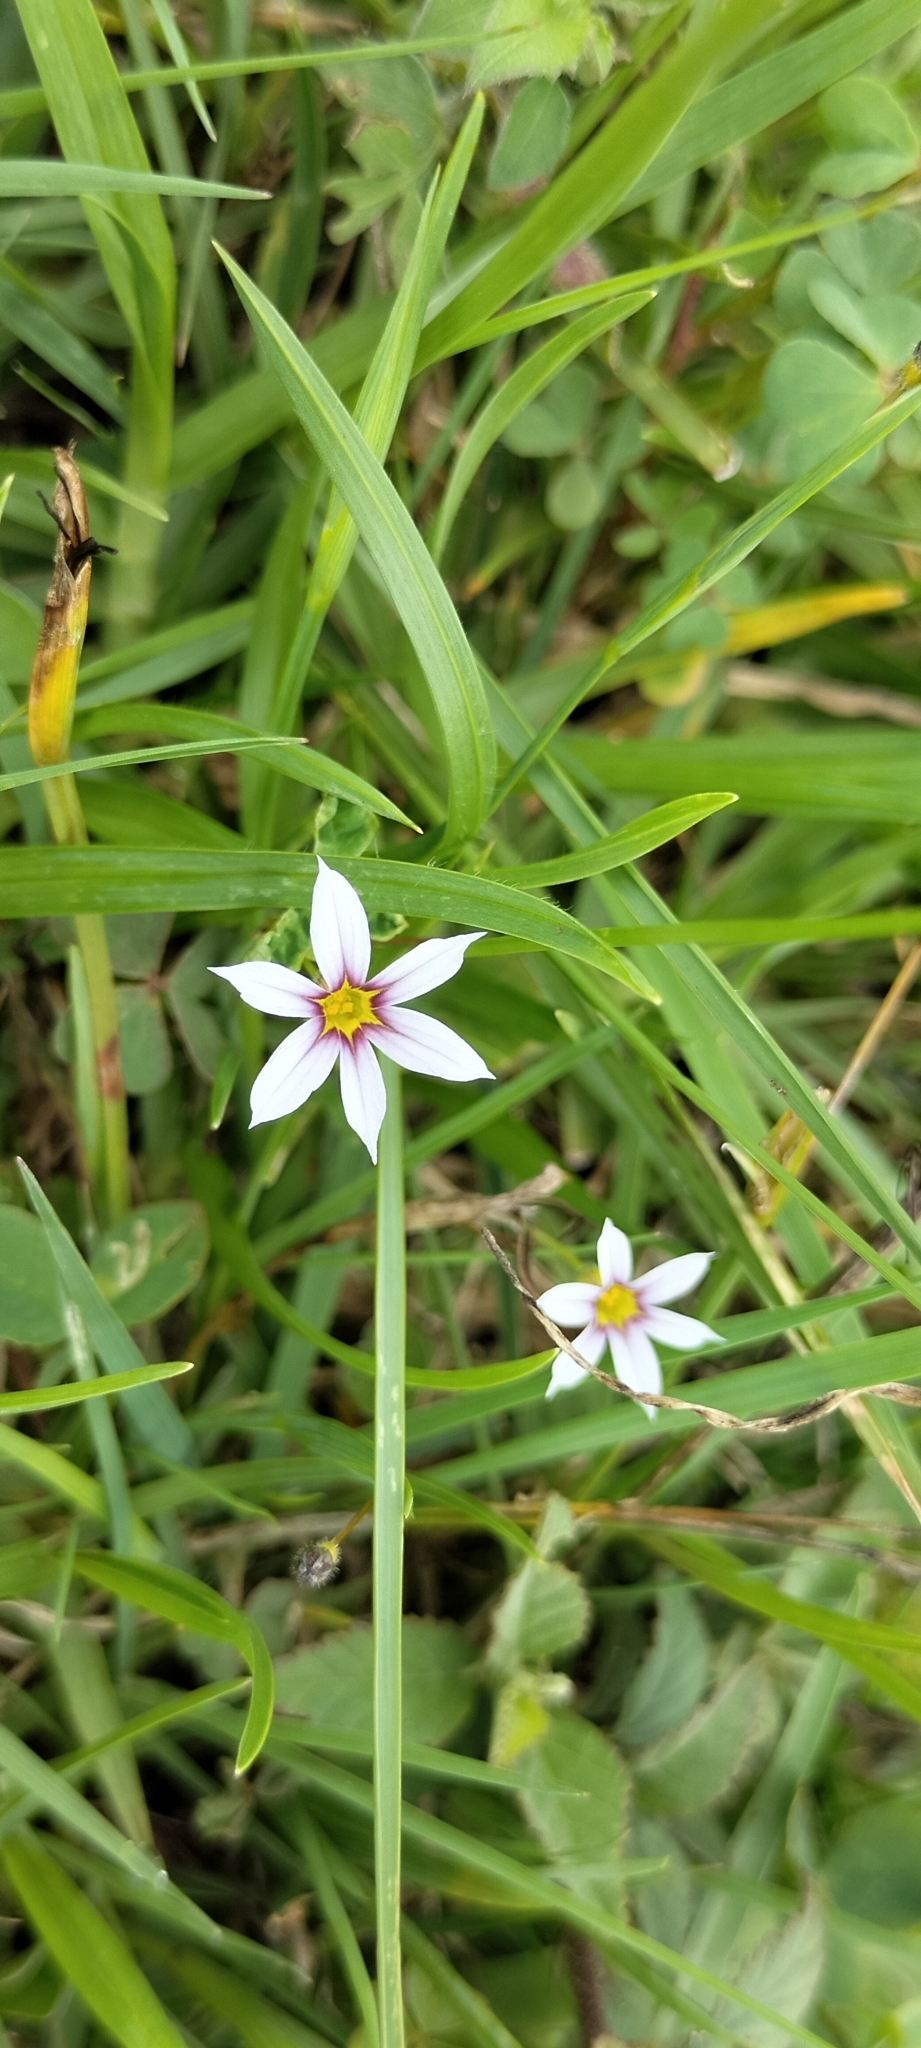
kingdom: Plantae
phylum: Tracheophyta
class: Liliopsida
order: Asparagales
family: Iridaceae
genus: Sisyrinchium
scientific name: Sisyrinchium micranthum
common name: Bermuda pigroot
